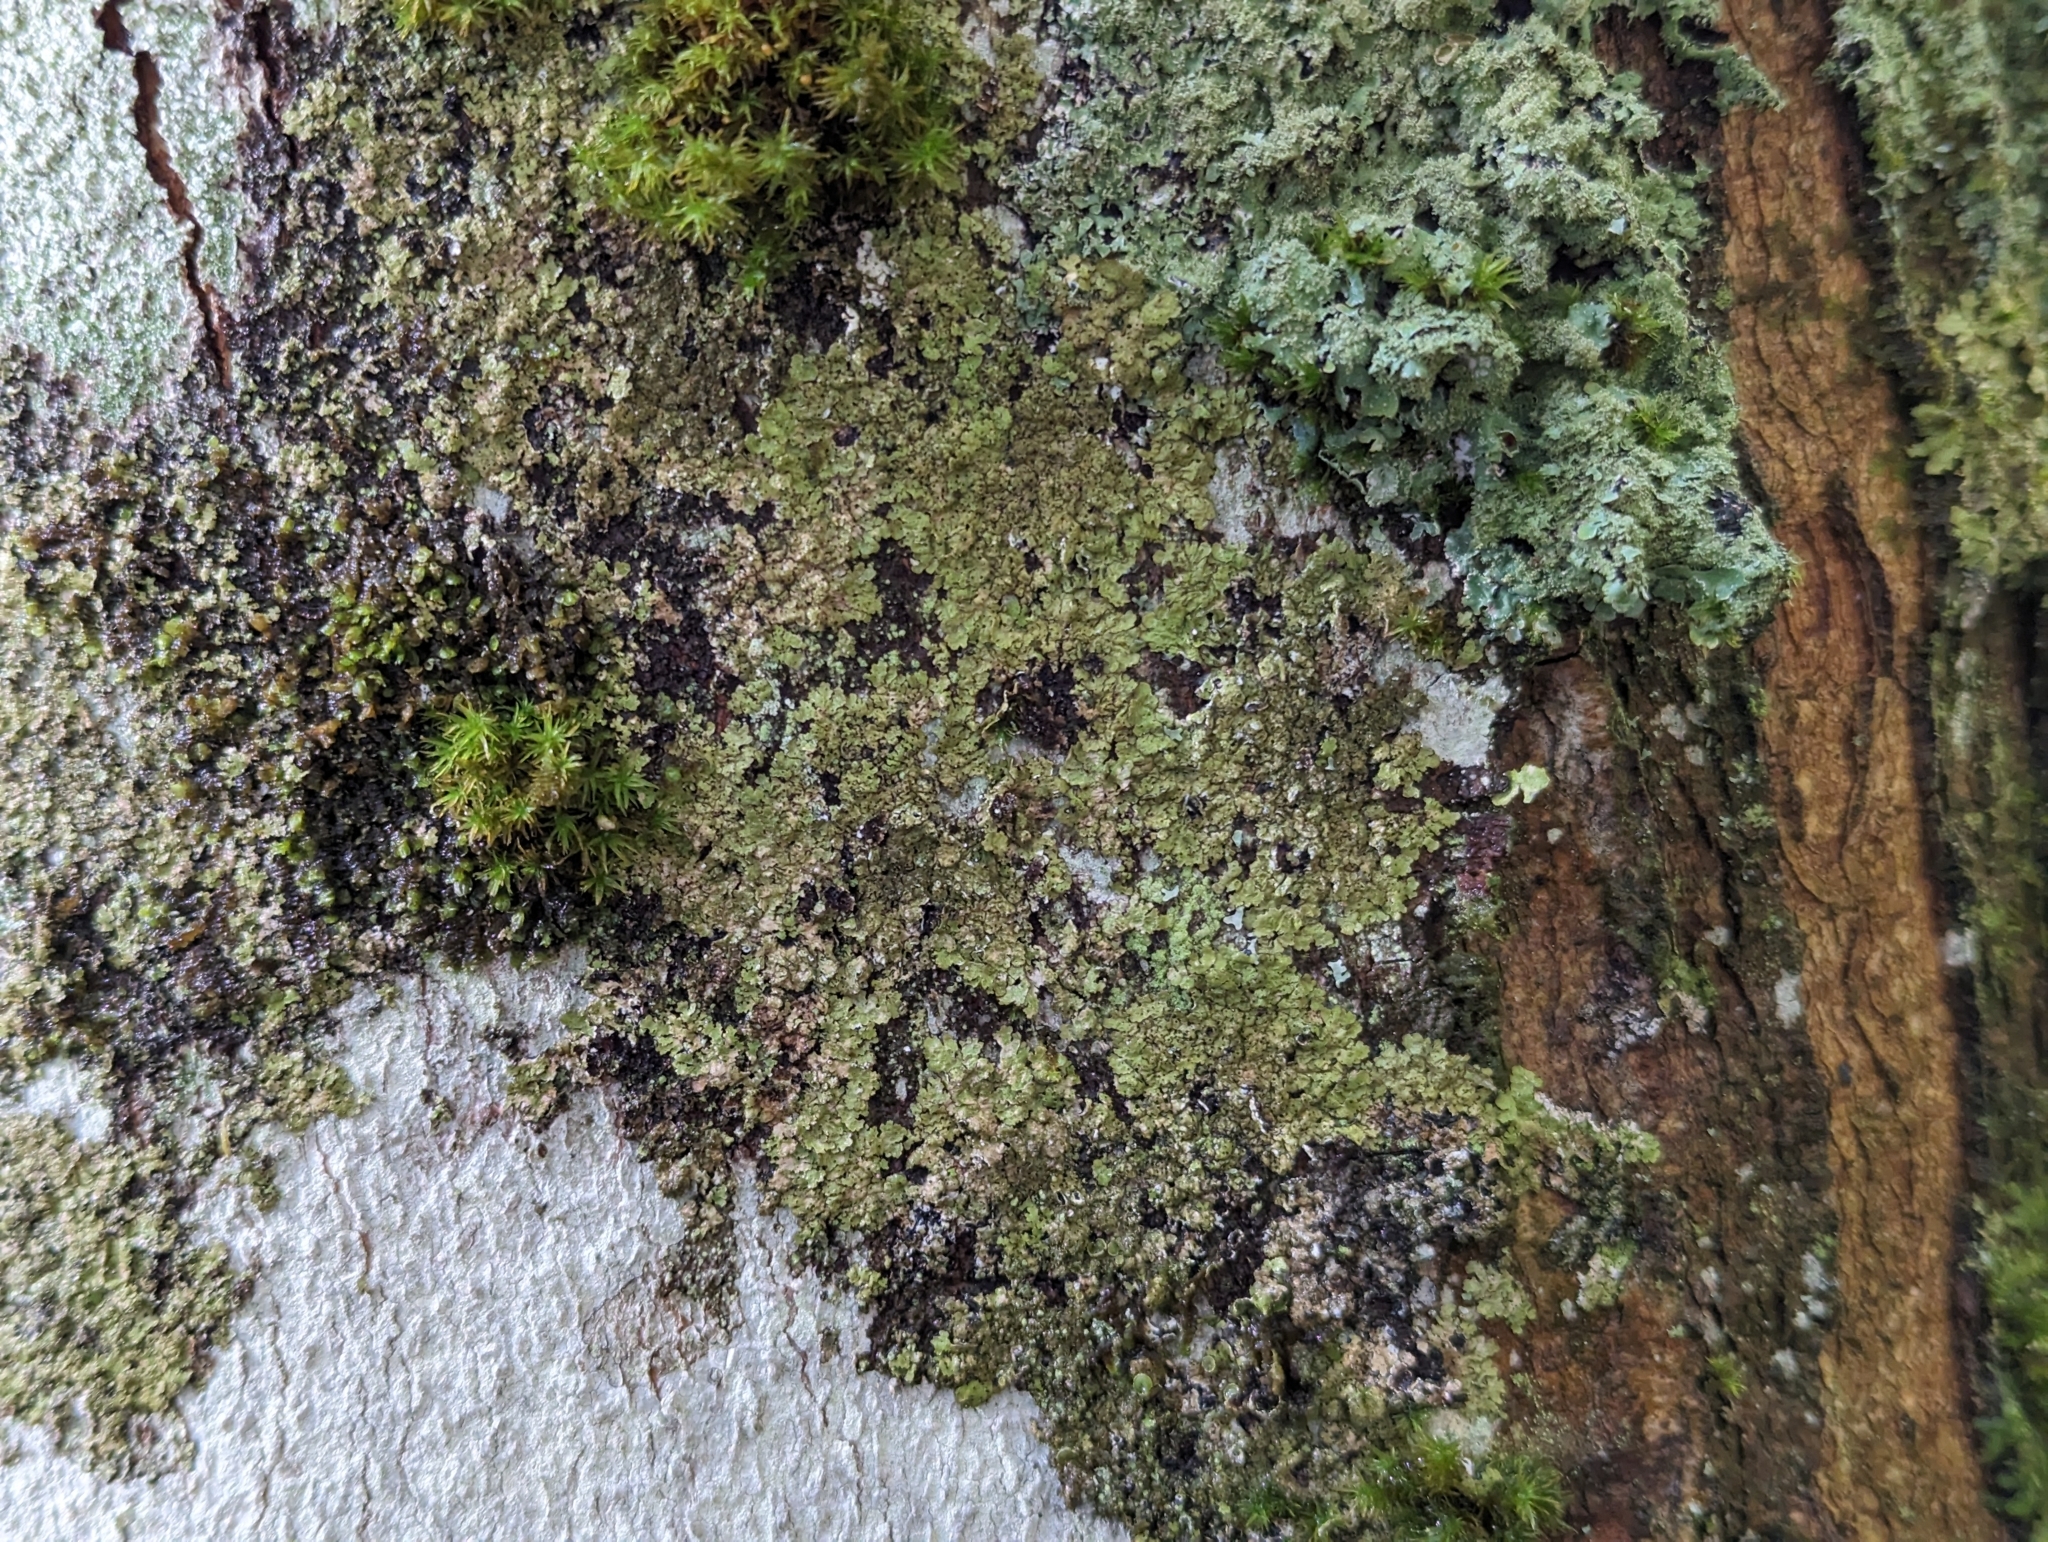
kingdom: Fungi
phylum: Ascomycota
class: Lecanoromycetes
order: Lecanorales
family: Parmeliaceae
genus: Melanelixia
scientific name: Melanelixia glabratula
